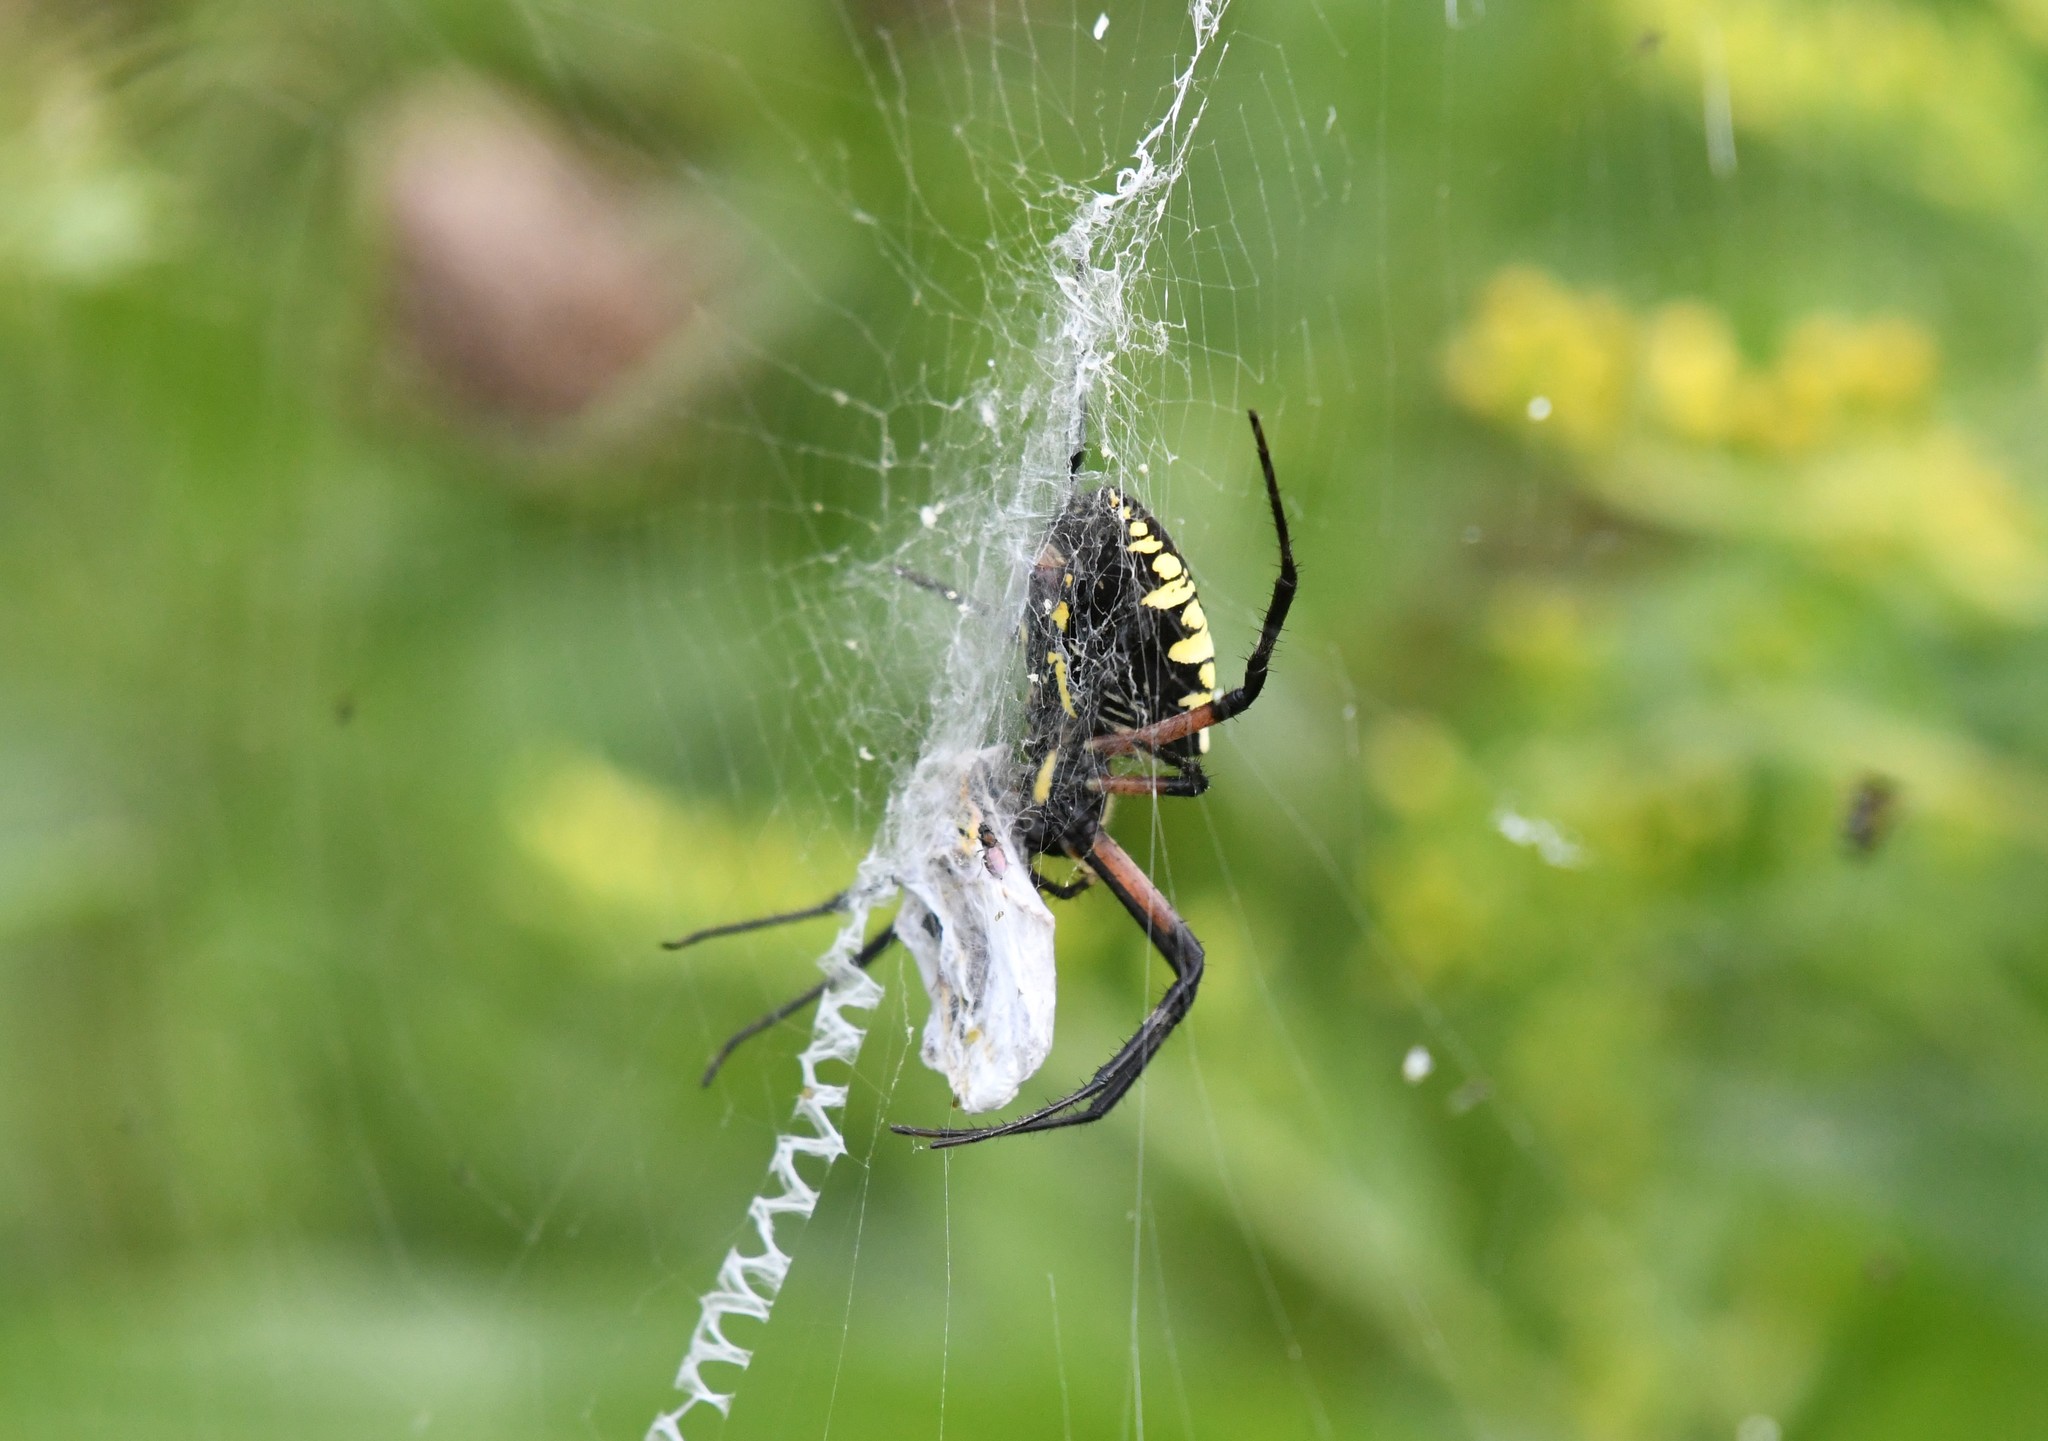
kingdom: Animalia
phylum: Arthropoda
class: Arachnida
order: Araneae
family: Araneidae
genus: Argiope
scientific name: Argiope aurantia
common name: Orb weavers
